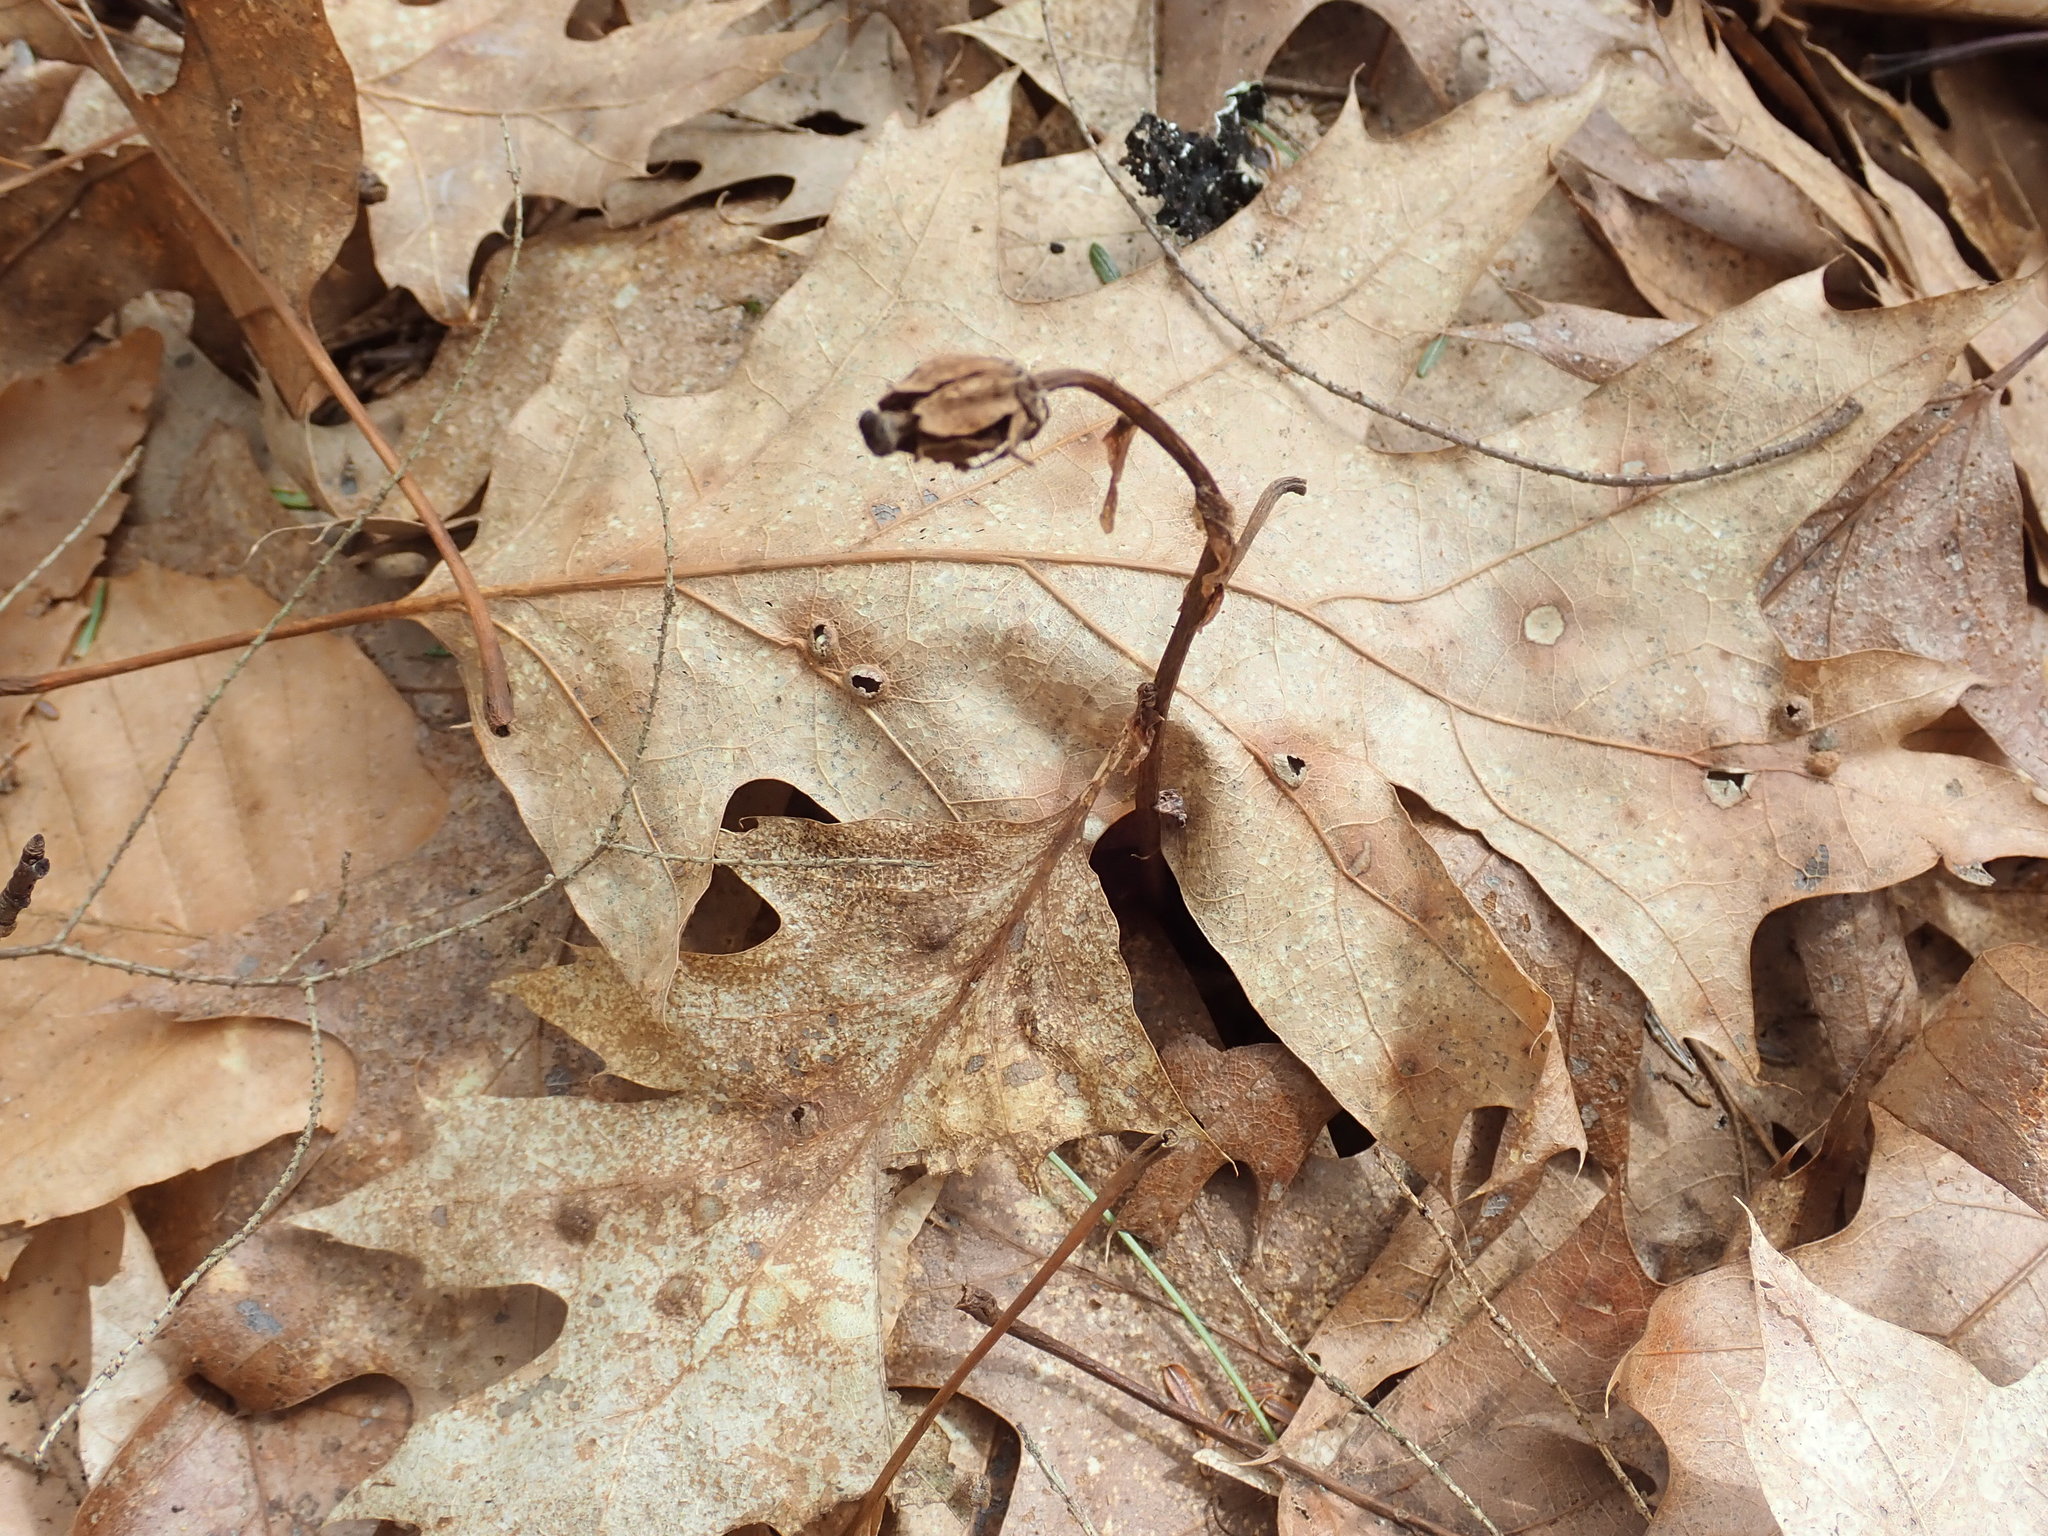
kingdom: Plantae
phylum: Tracheophyta
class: Magnoliopsida
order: Ericales
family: Ericaceae
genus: Monotropa
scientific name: Monotropa uniflora
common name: Convulsion root
